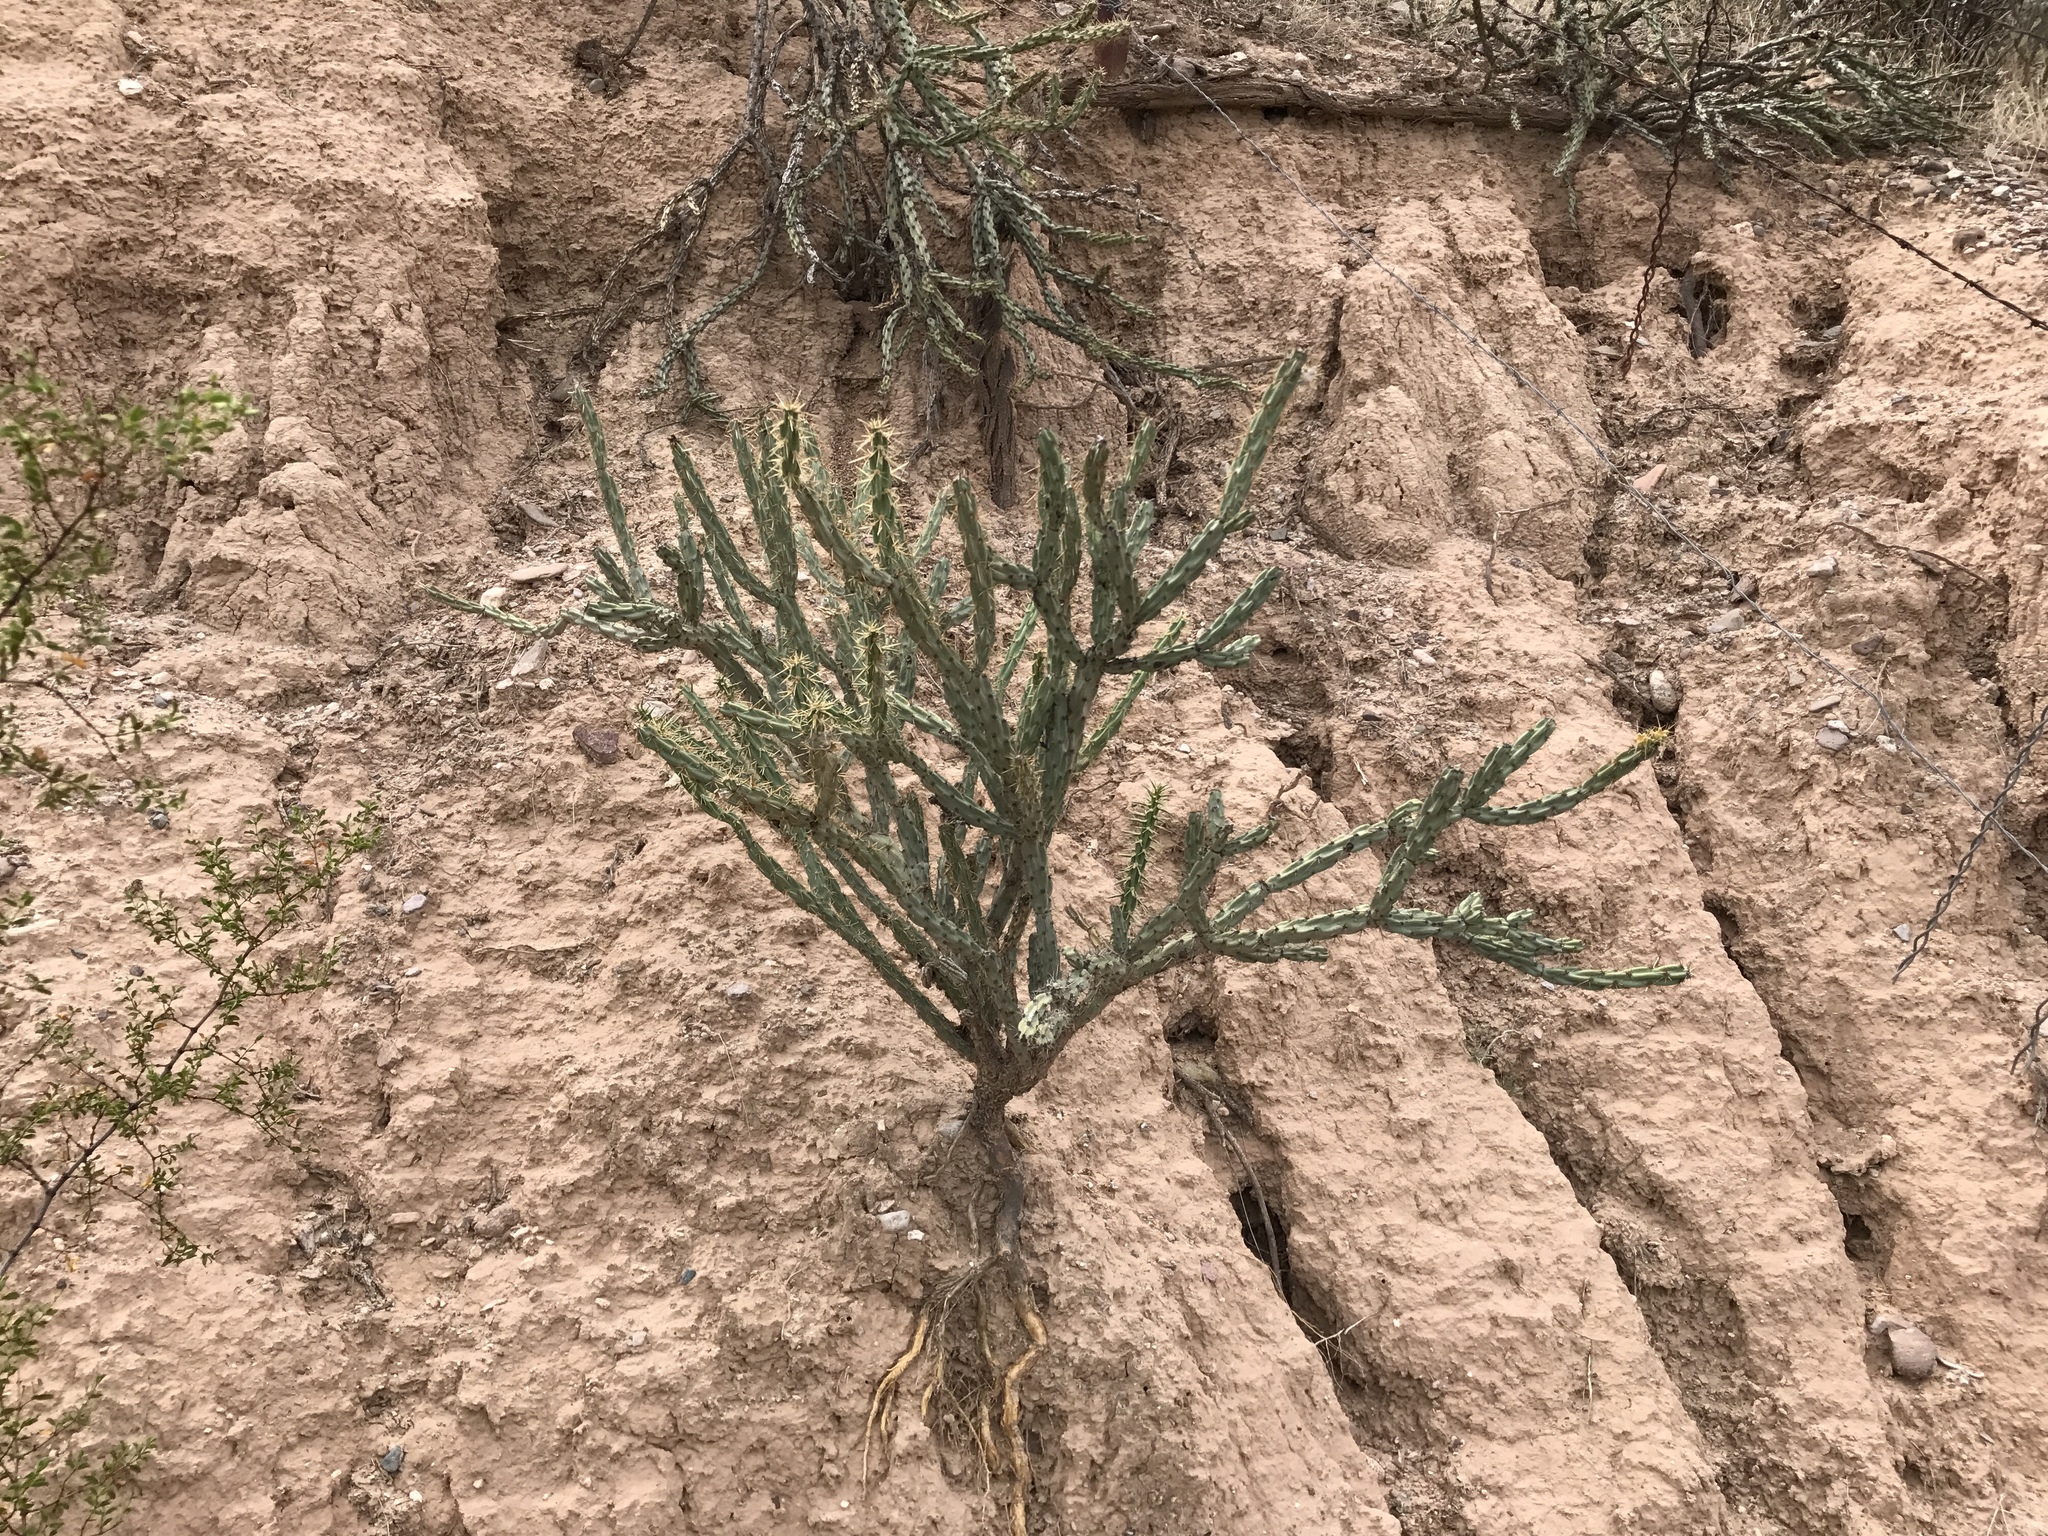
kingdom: Plantae
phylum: Tracheophyta
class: Magnoliopsida
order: Caryophyllales
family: Cactaceae
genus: Cylindropuntia
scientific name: Cylindropuntia acanthocarpa
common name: Buckhorn cholla
